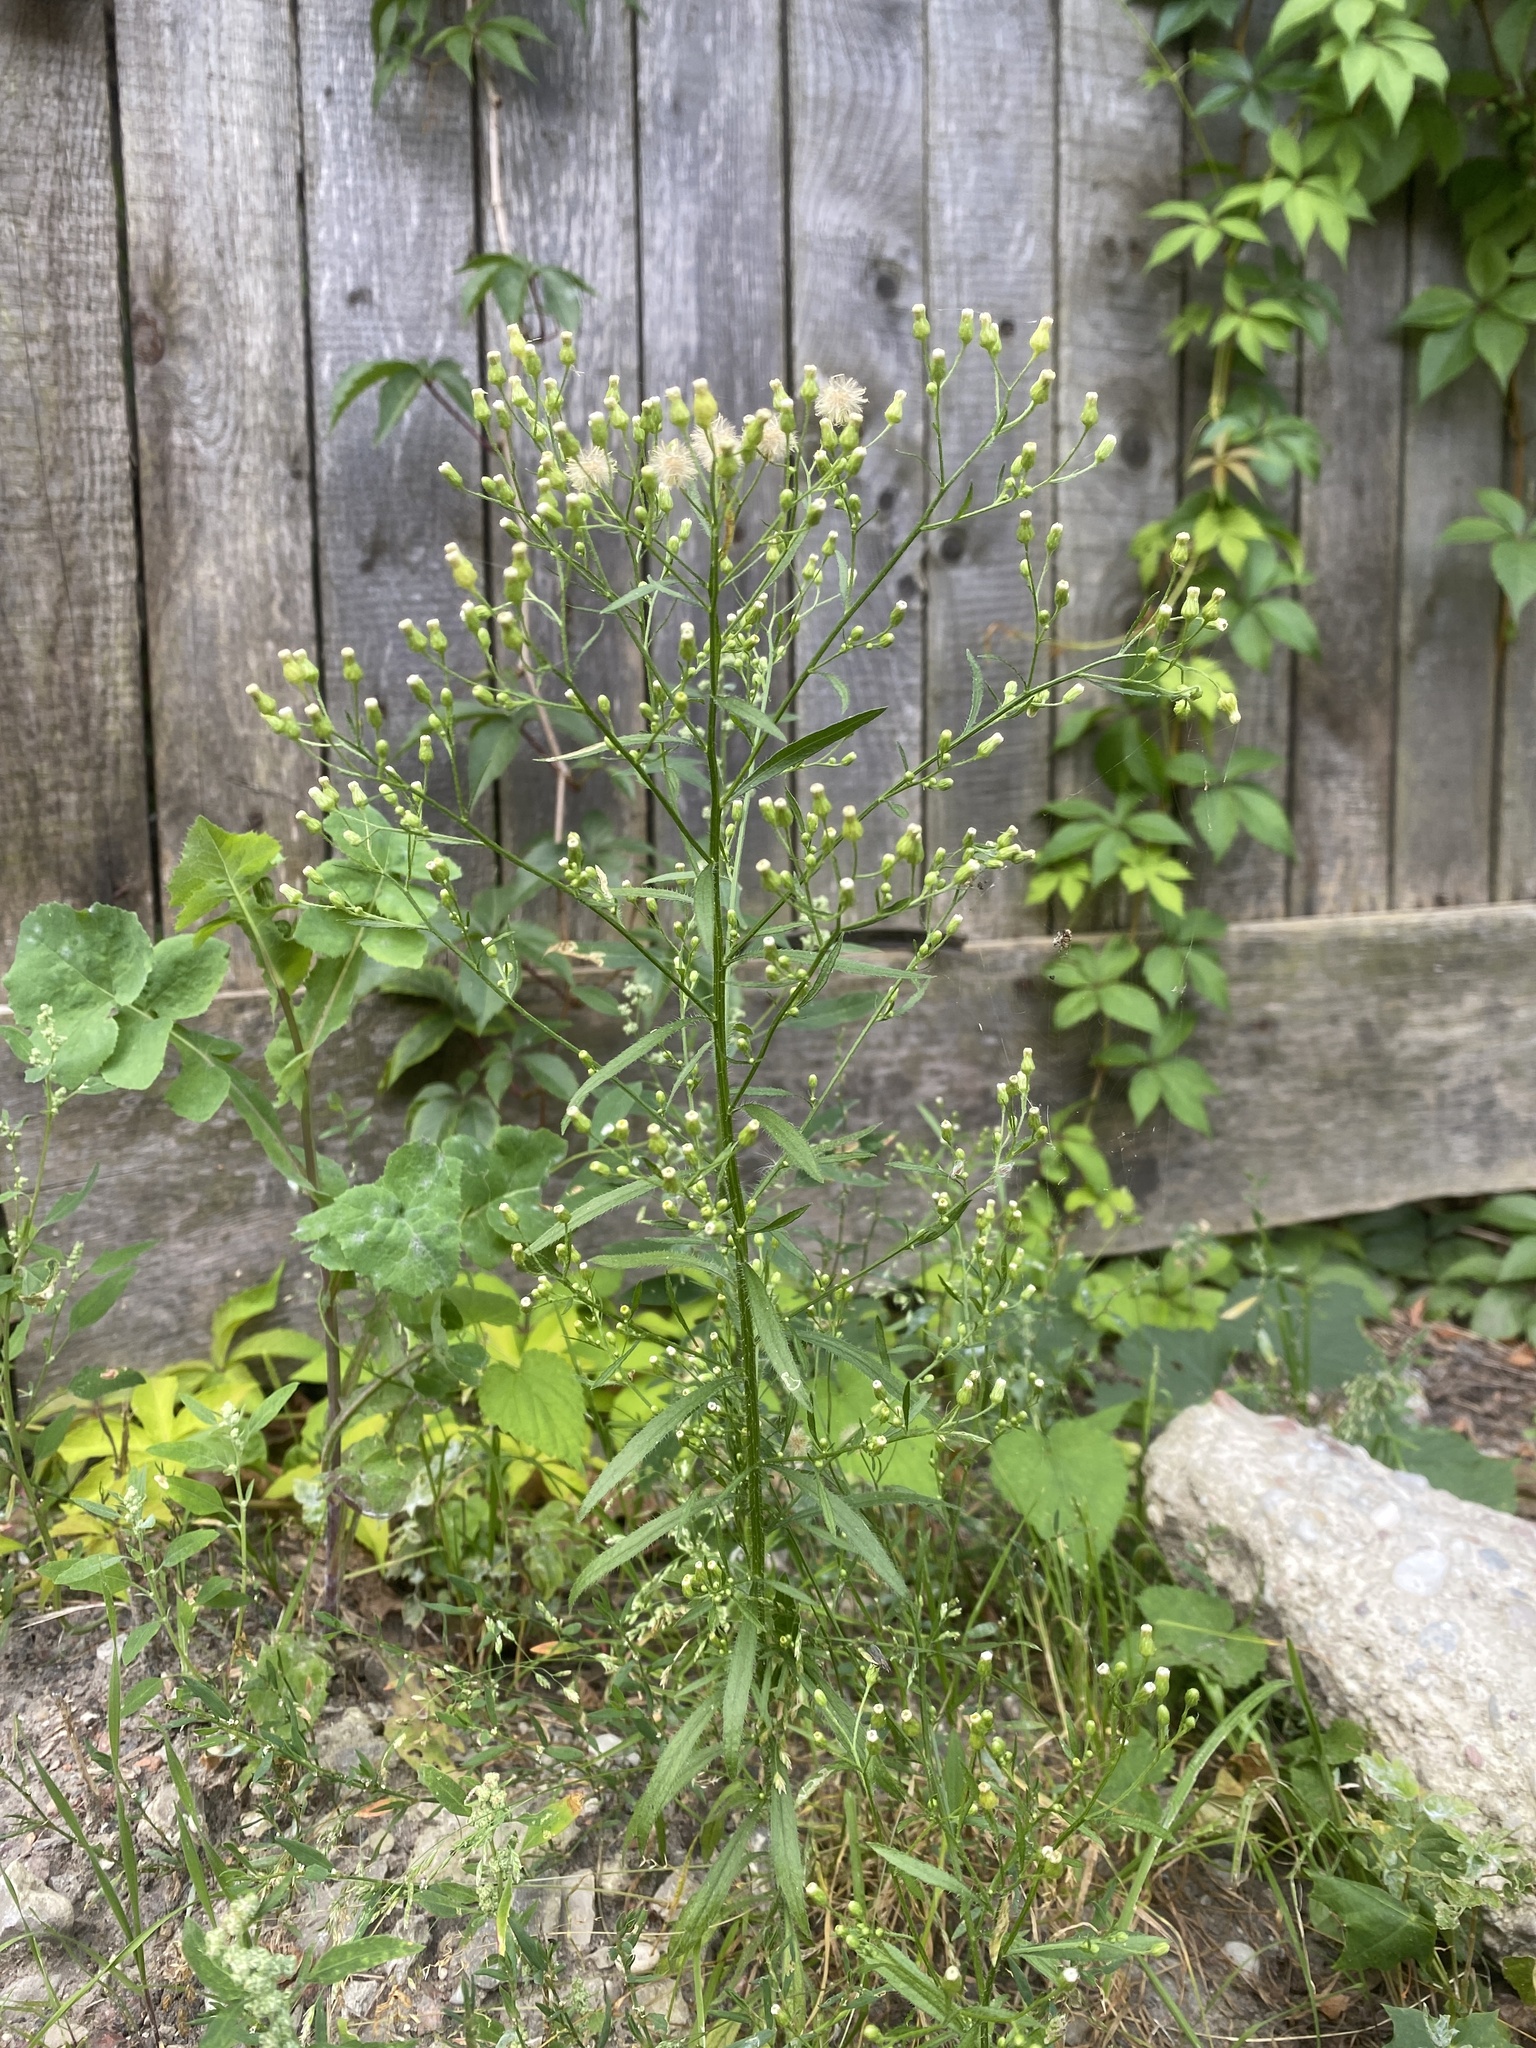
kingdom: Plantae
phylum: Tracheophyta
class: Magnoliopsida
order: Asterales
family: Asteraceae
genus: Erigeron
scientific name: Erigeron canadensis
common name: Canadian fleabane
